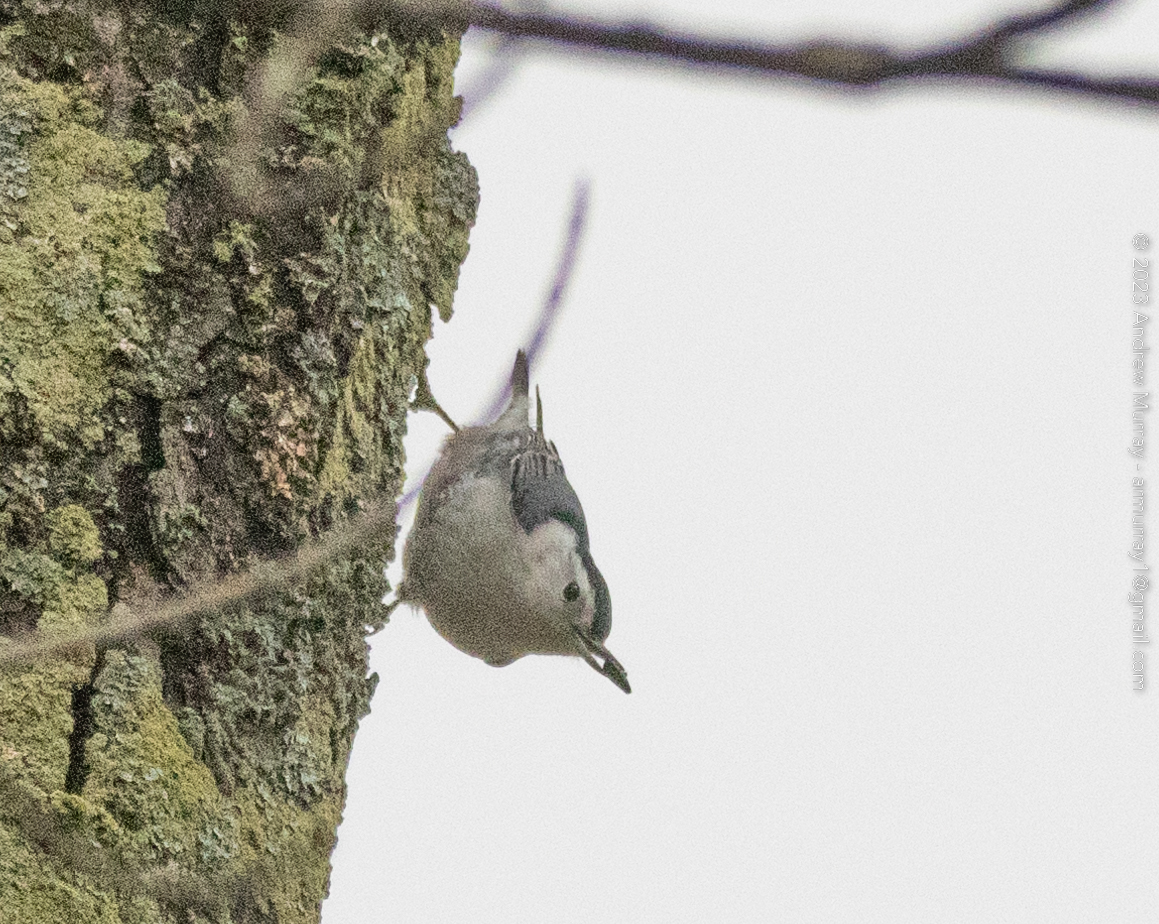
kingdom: Animalia
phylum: Chordata
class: Aves
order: Passeriformes
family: Sittidae
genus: Sitta
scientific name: Sitta carolinensis
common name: White-breasted nuthatch
